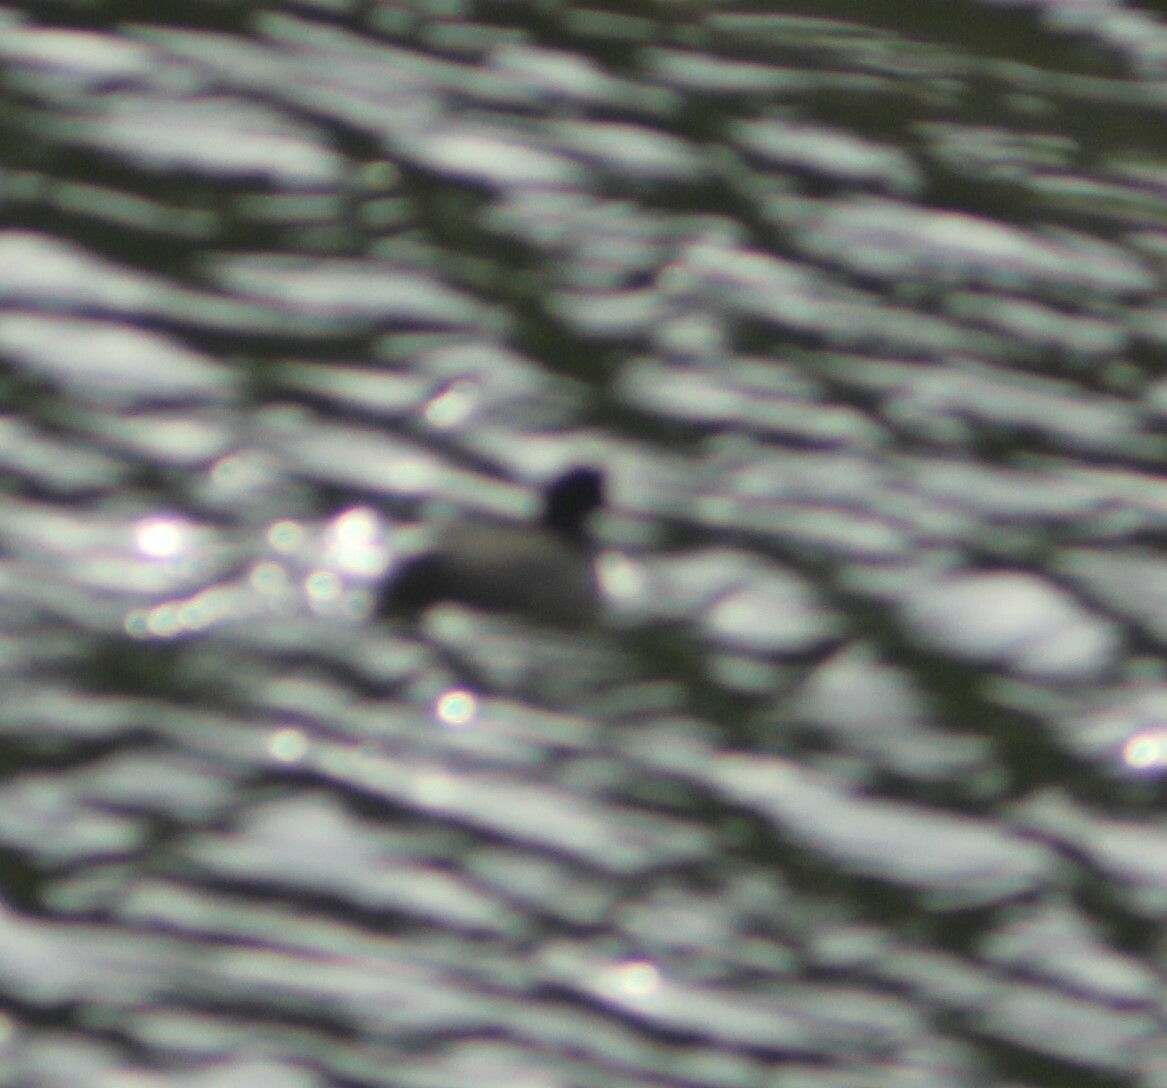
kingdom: Animalia
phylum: Chordata
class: Aves
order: Gruiformes
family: Rallidae
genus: Fulica
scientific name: Fulica atra
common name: Eurasian coot
